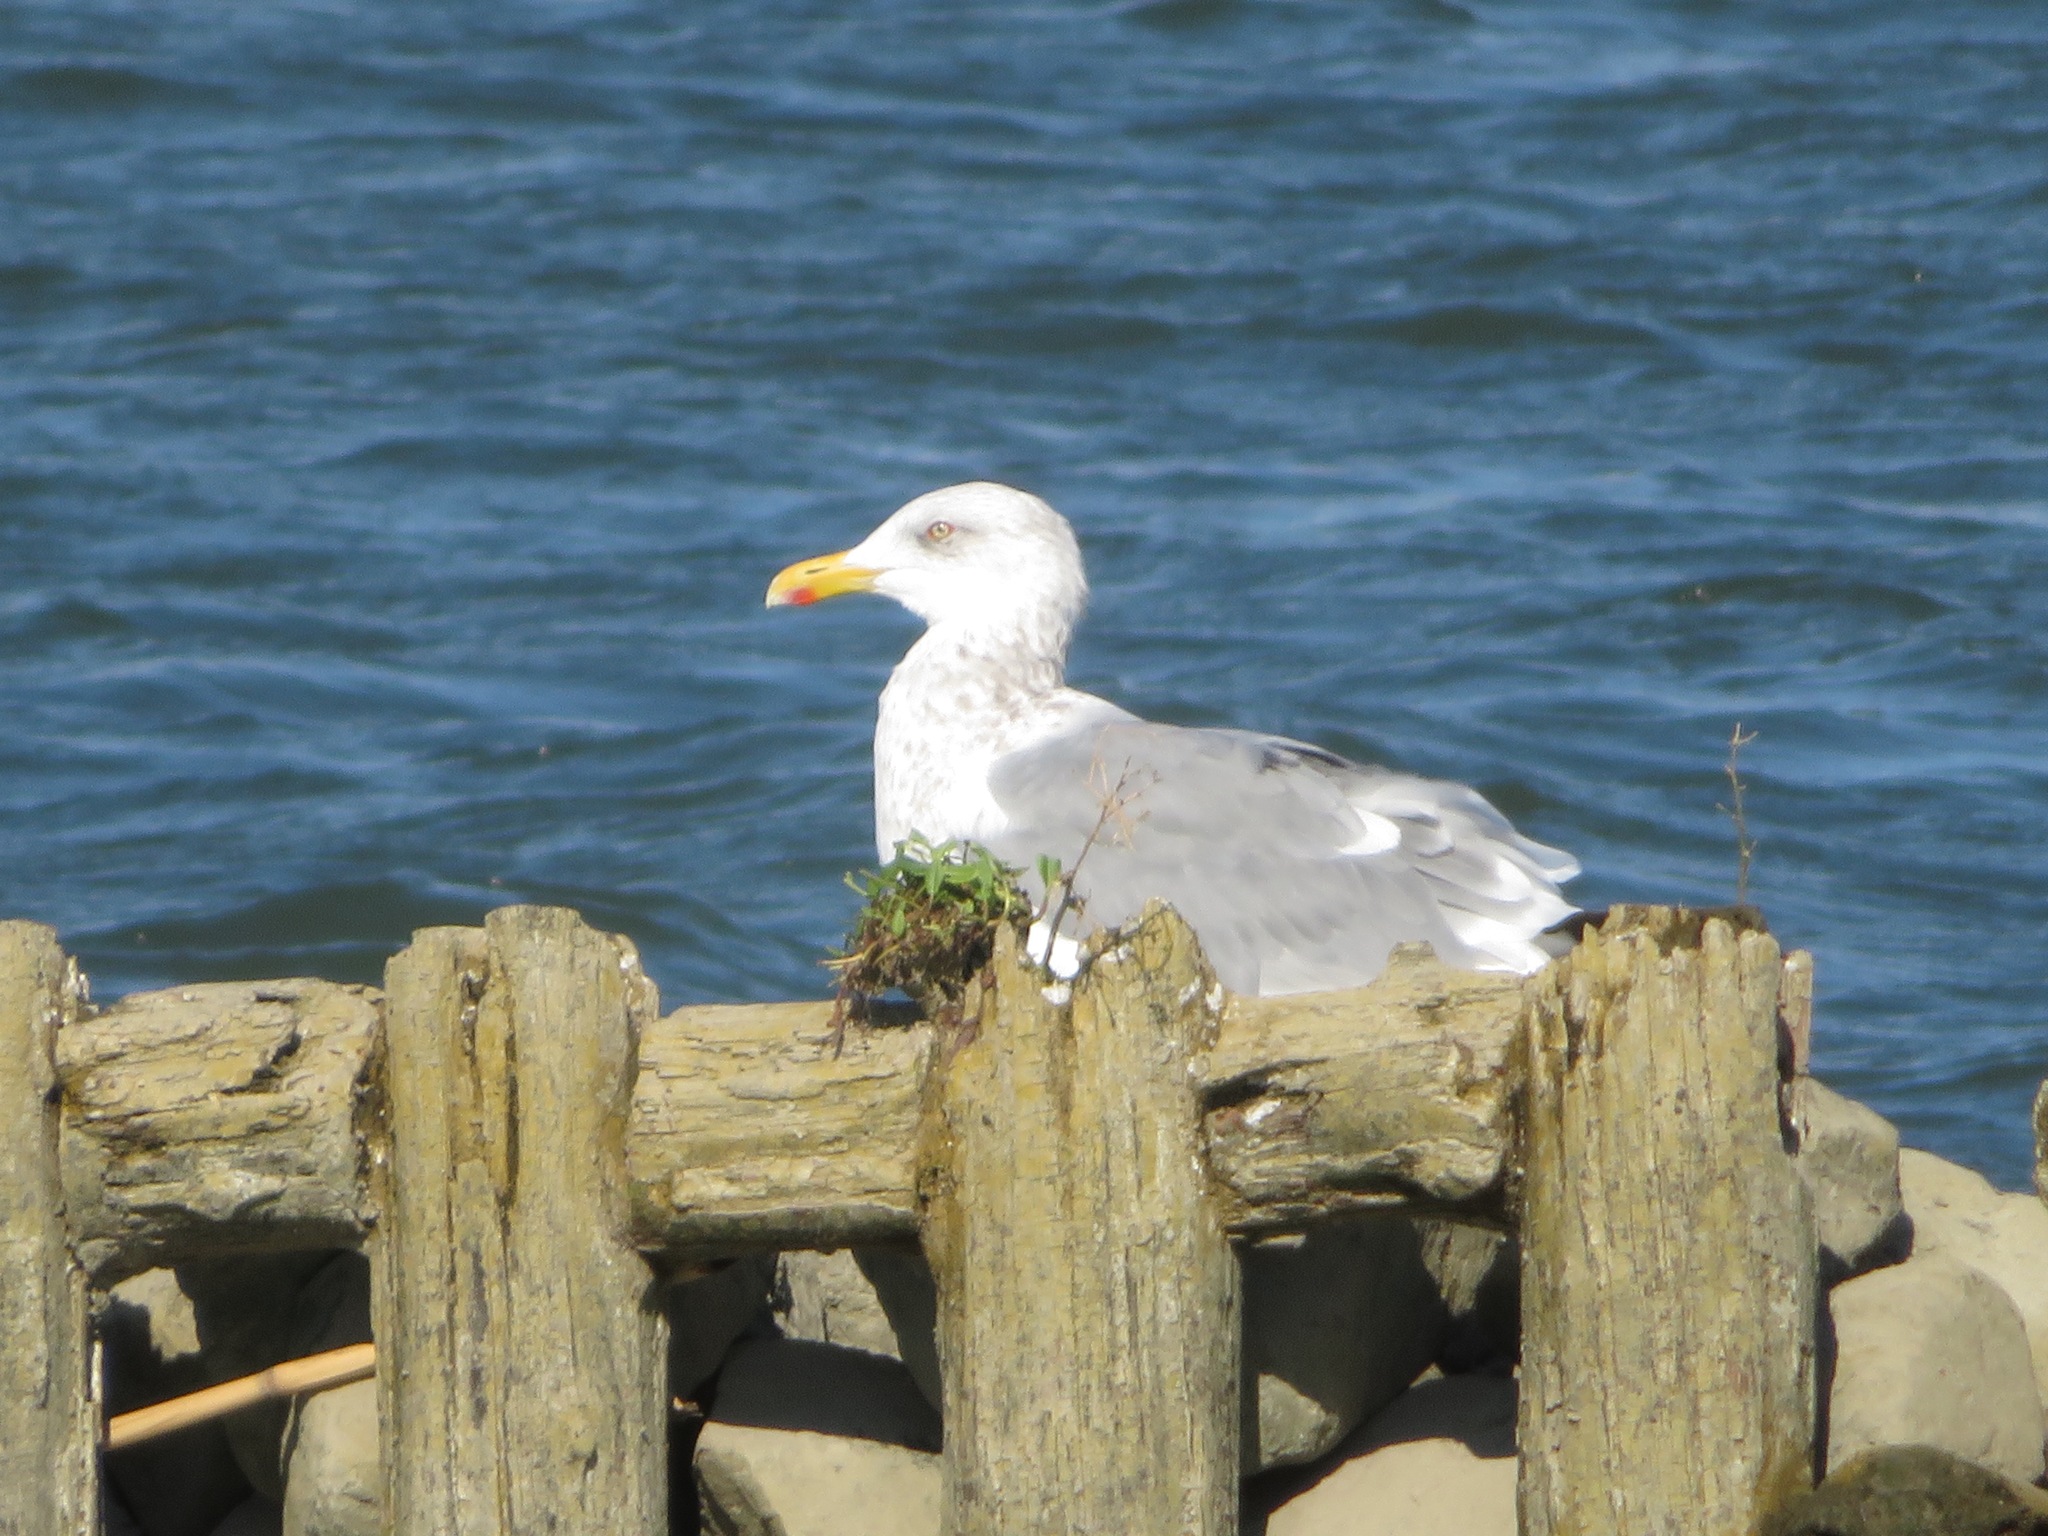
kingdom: Animalia
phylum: Chordata
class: Aves
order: Charadriiformes
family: Laridae
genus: Larus
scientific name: Larus vegae
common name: Vega gull
